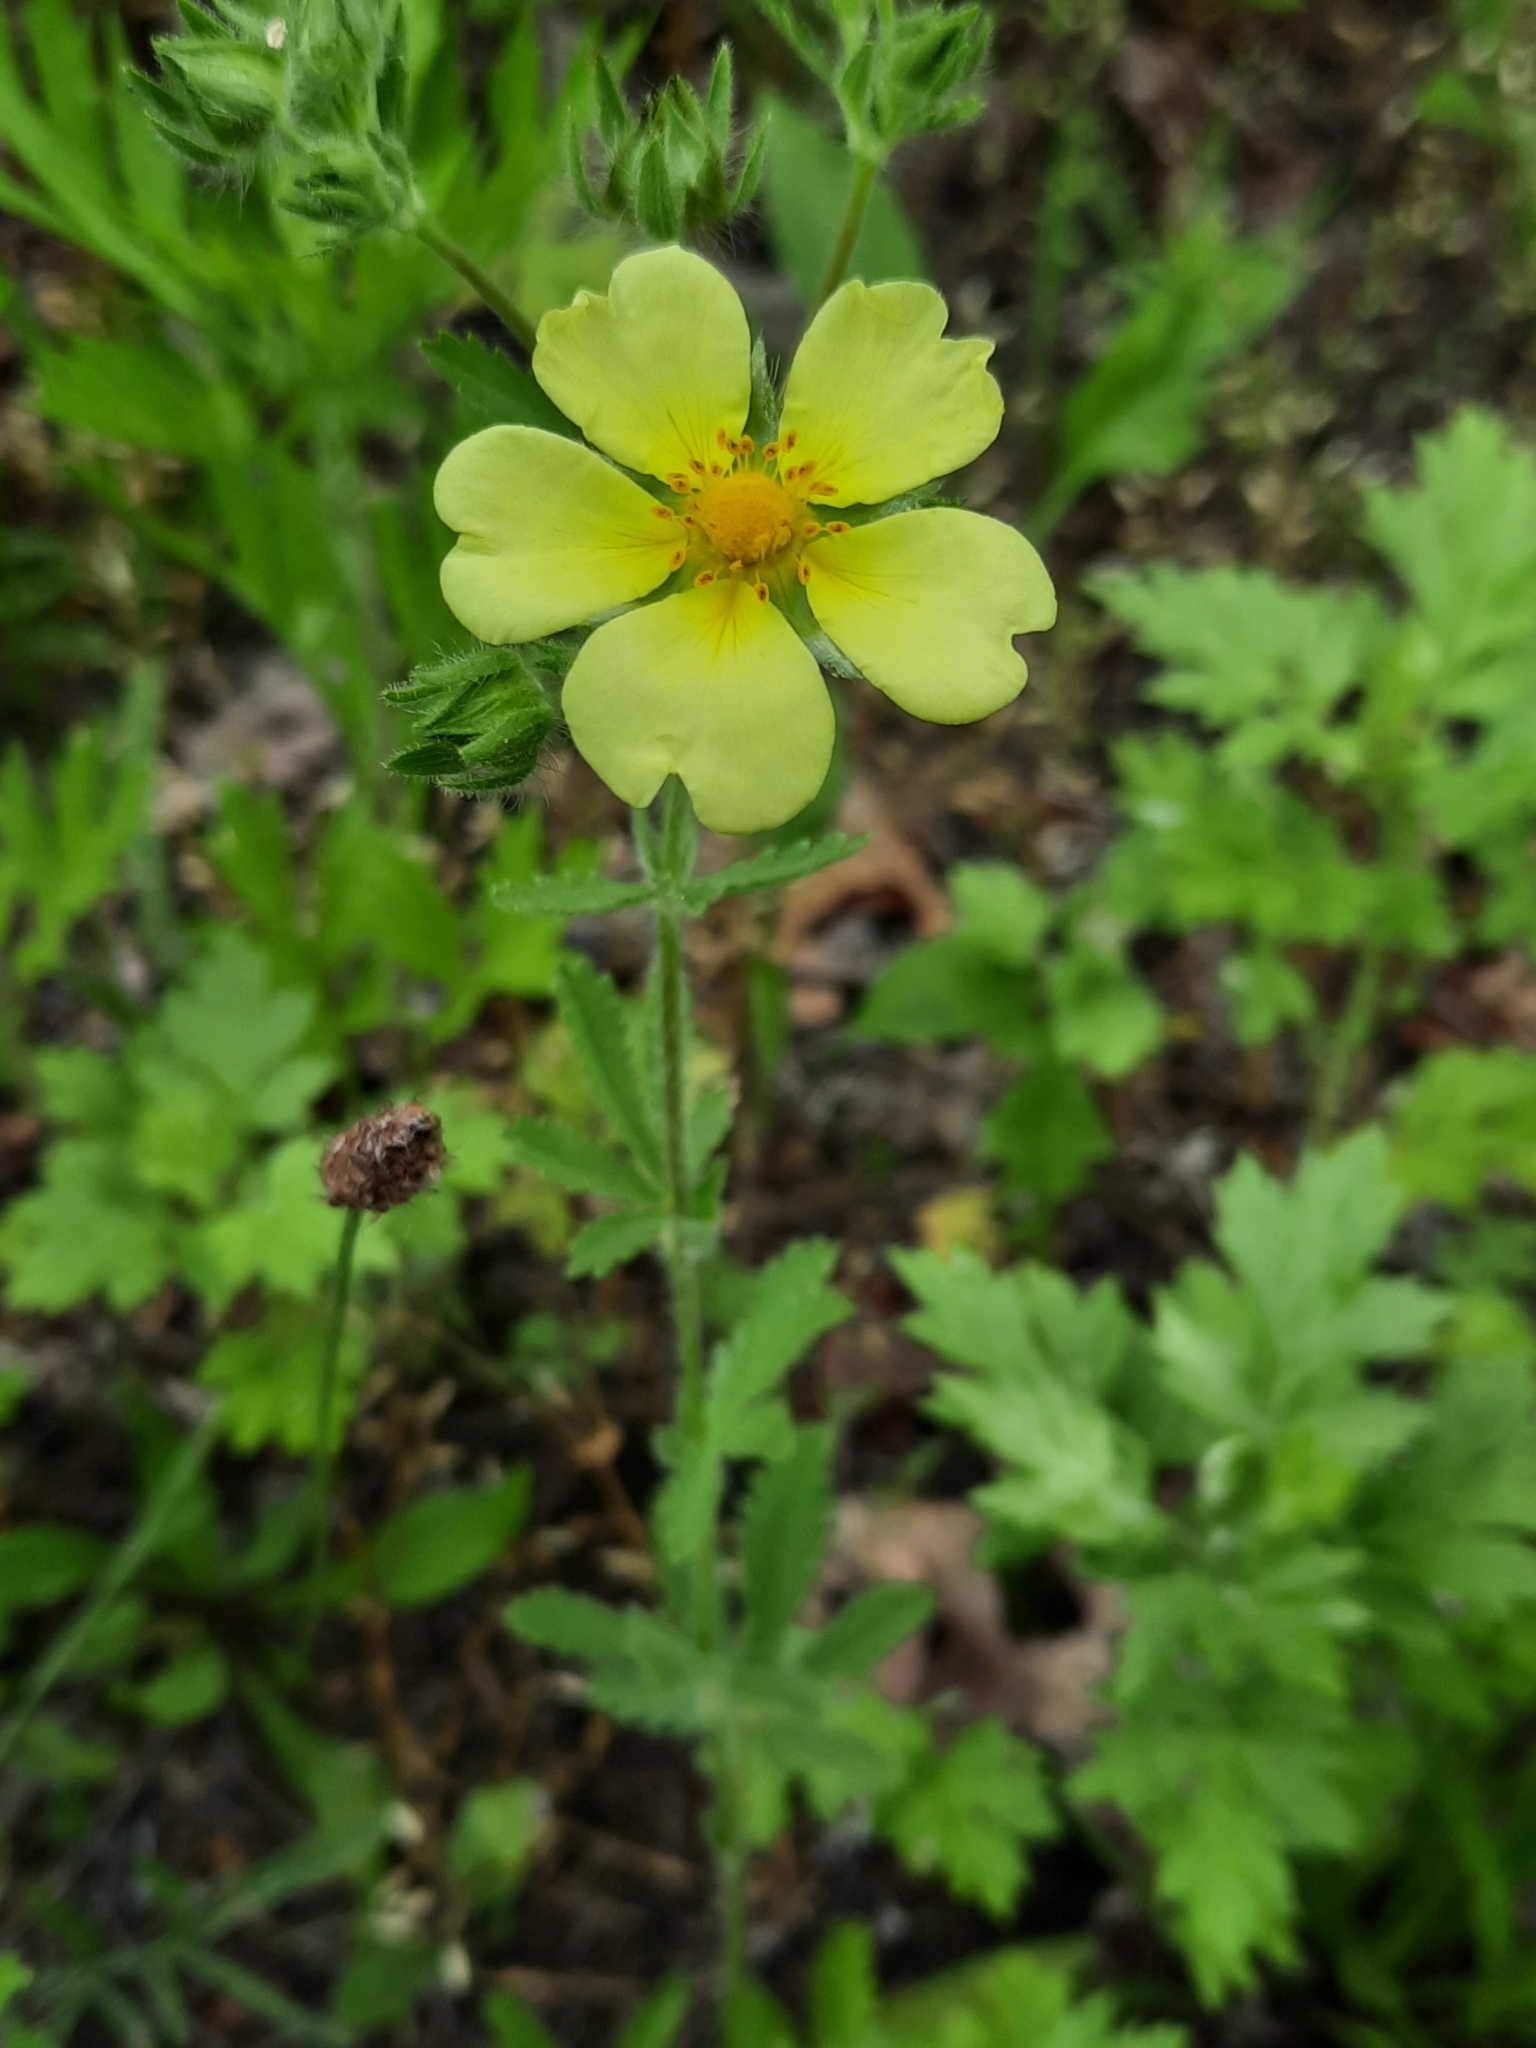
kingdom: Plantae
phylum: Tracheophyta
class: Magnoliopsida
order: Rosales
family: Rosaceae
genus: Potentilla
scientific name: Potentilla recta
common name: Sulphur cinquefoil
